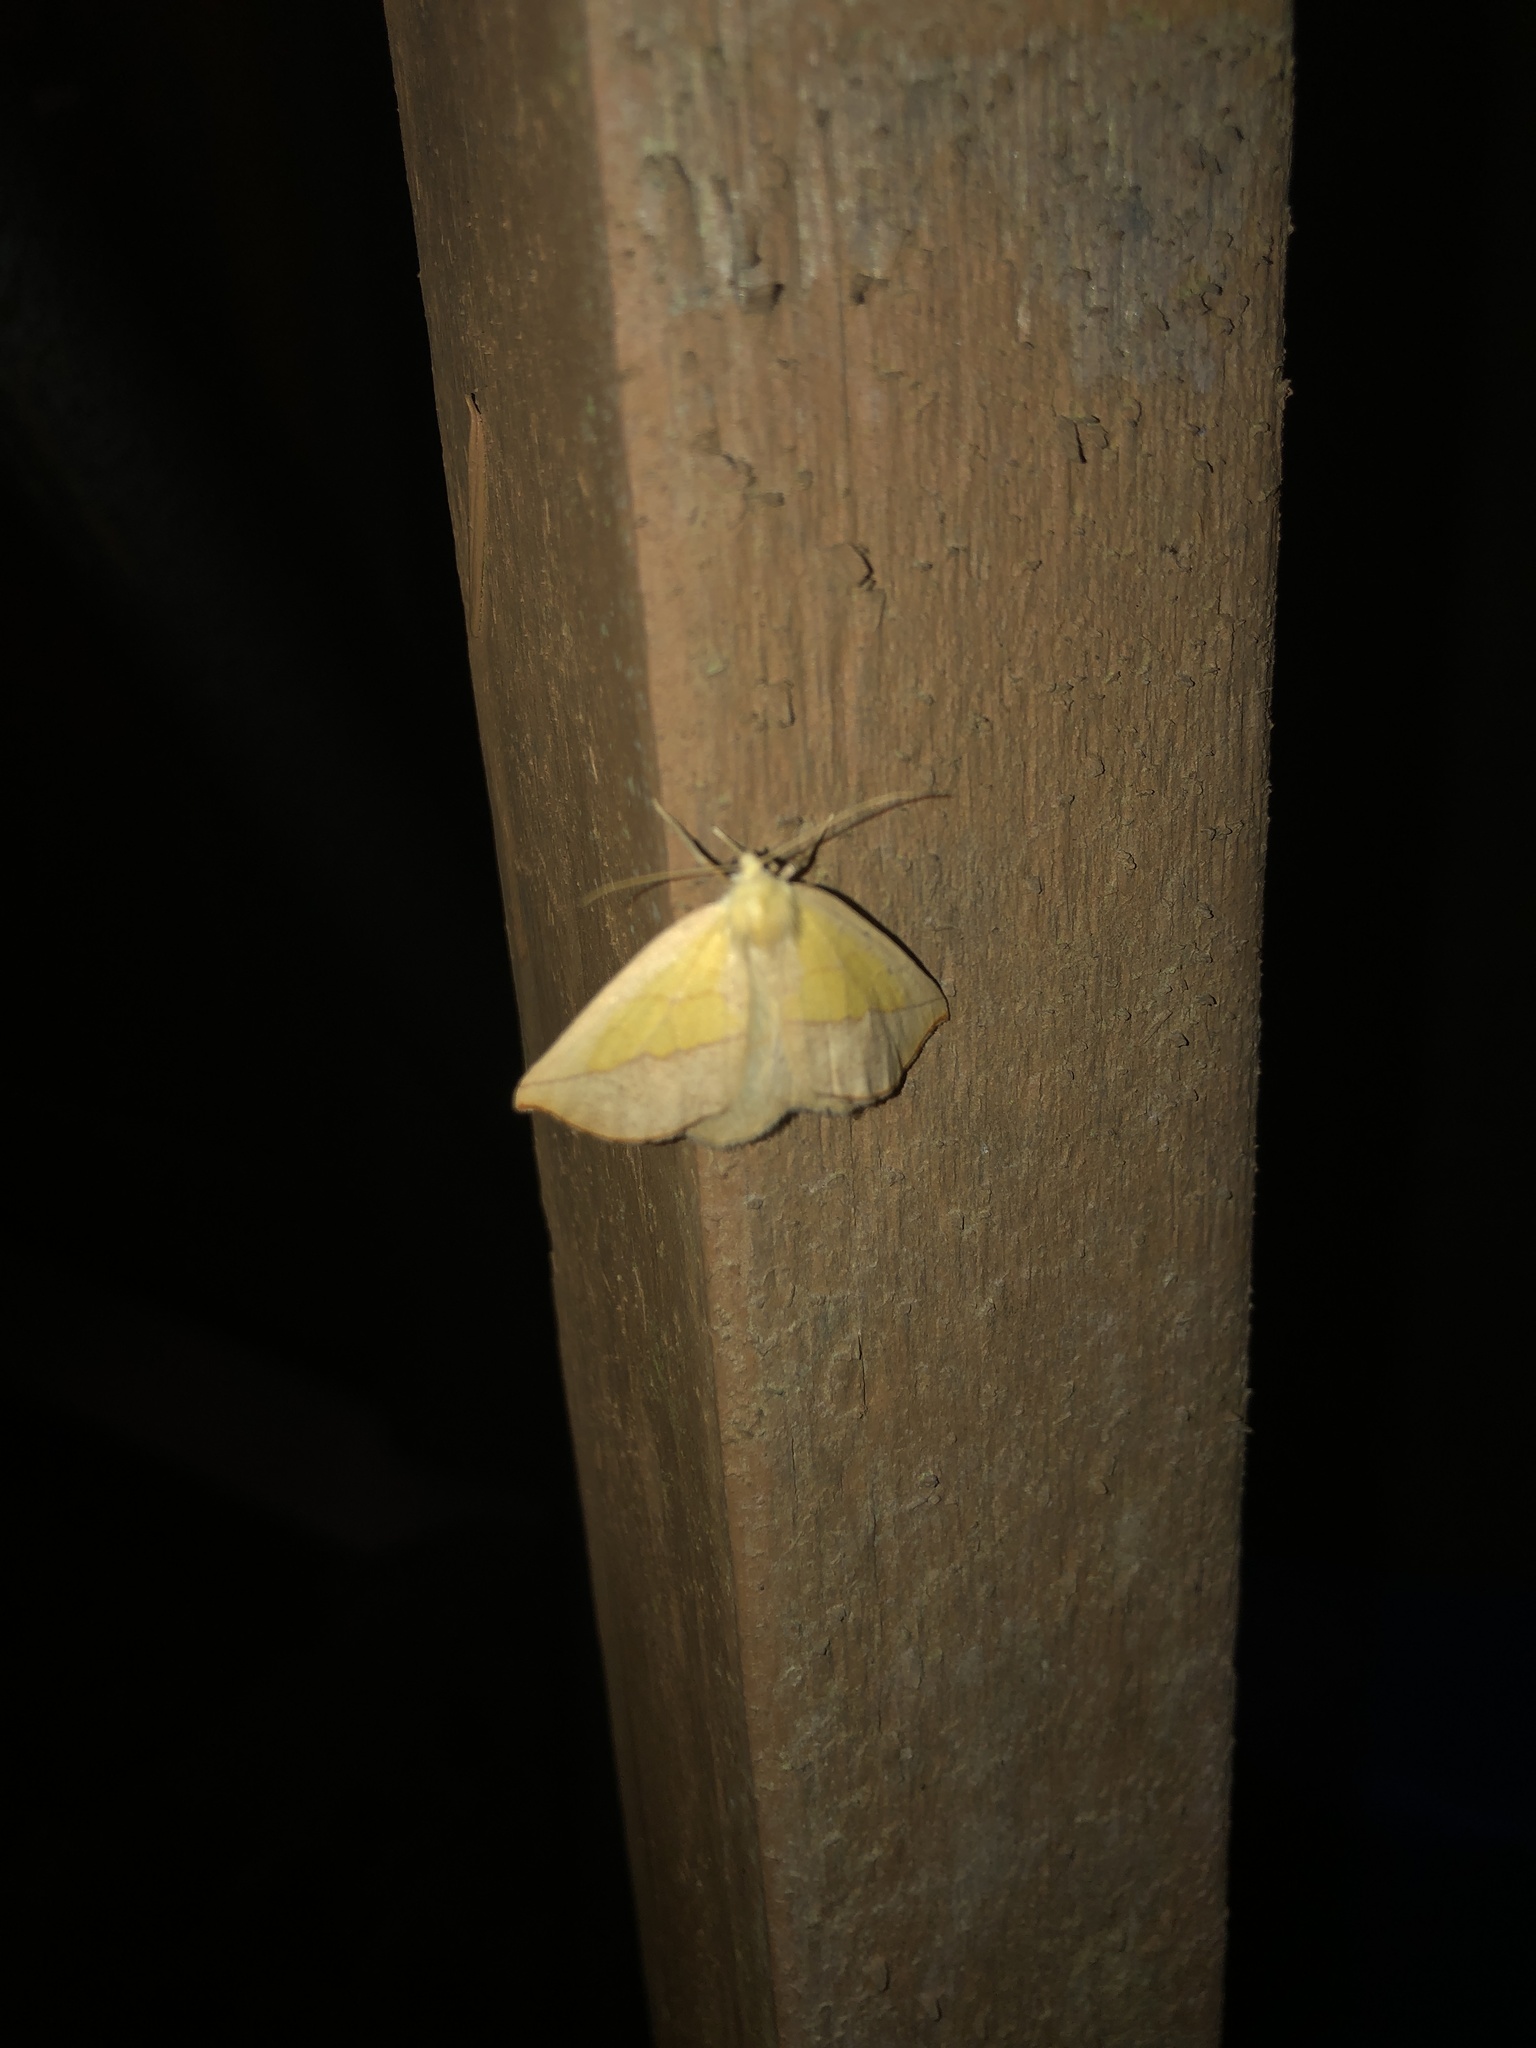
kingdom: Animalia
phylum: Arthropoda
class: Insecta
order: Lepidoptera
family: Geometridae
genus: Sicya
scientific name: Sicya macularia
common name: Sharp-lined yellow
